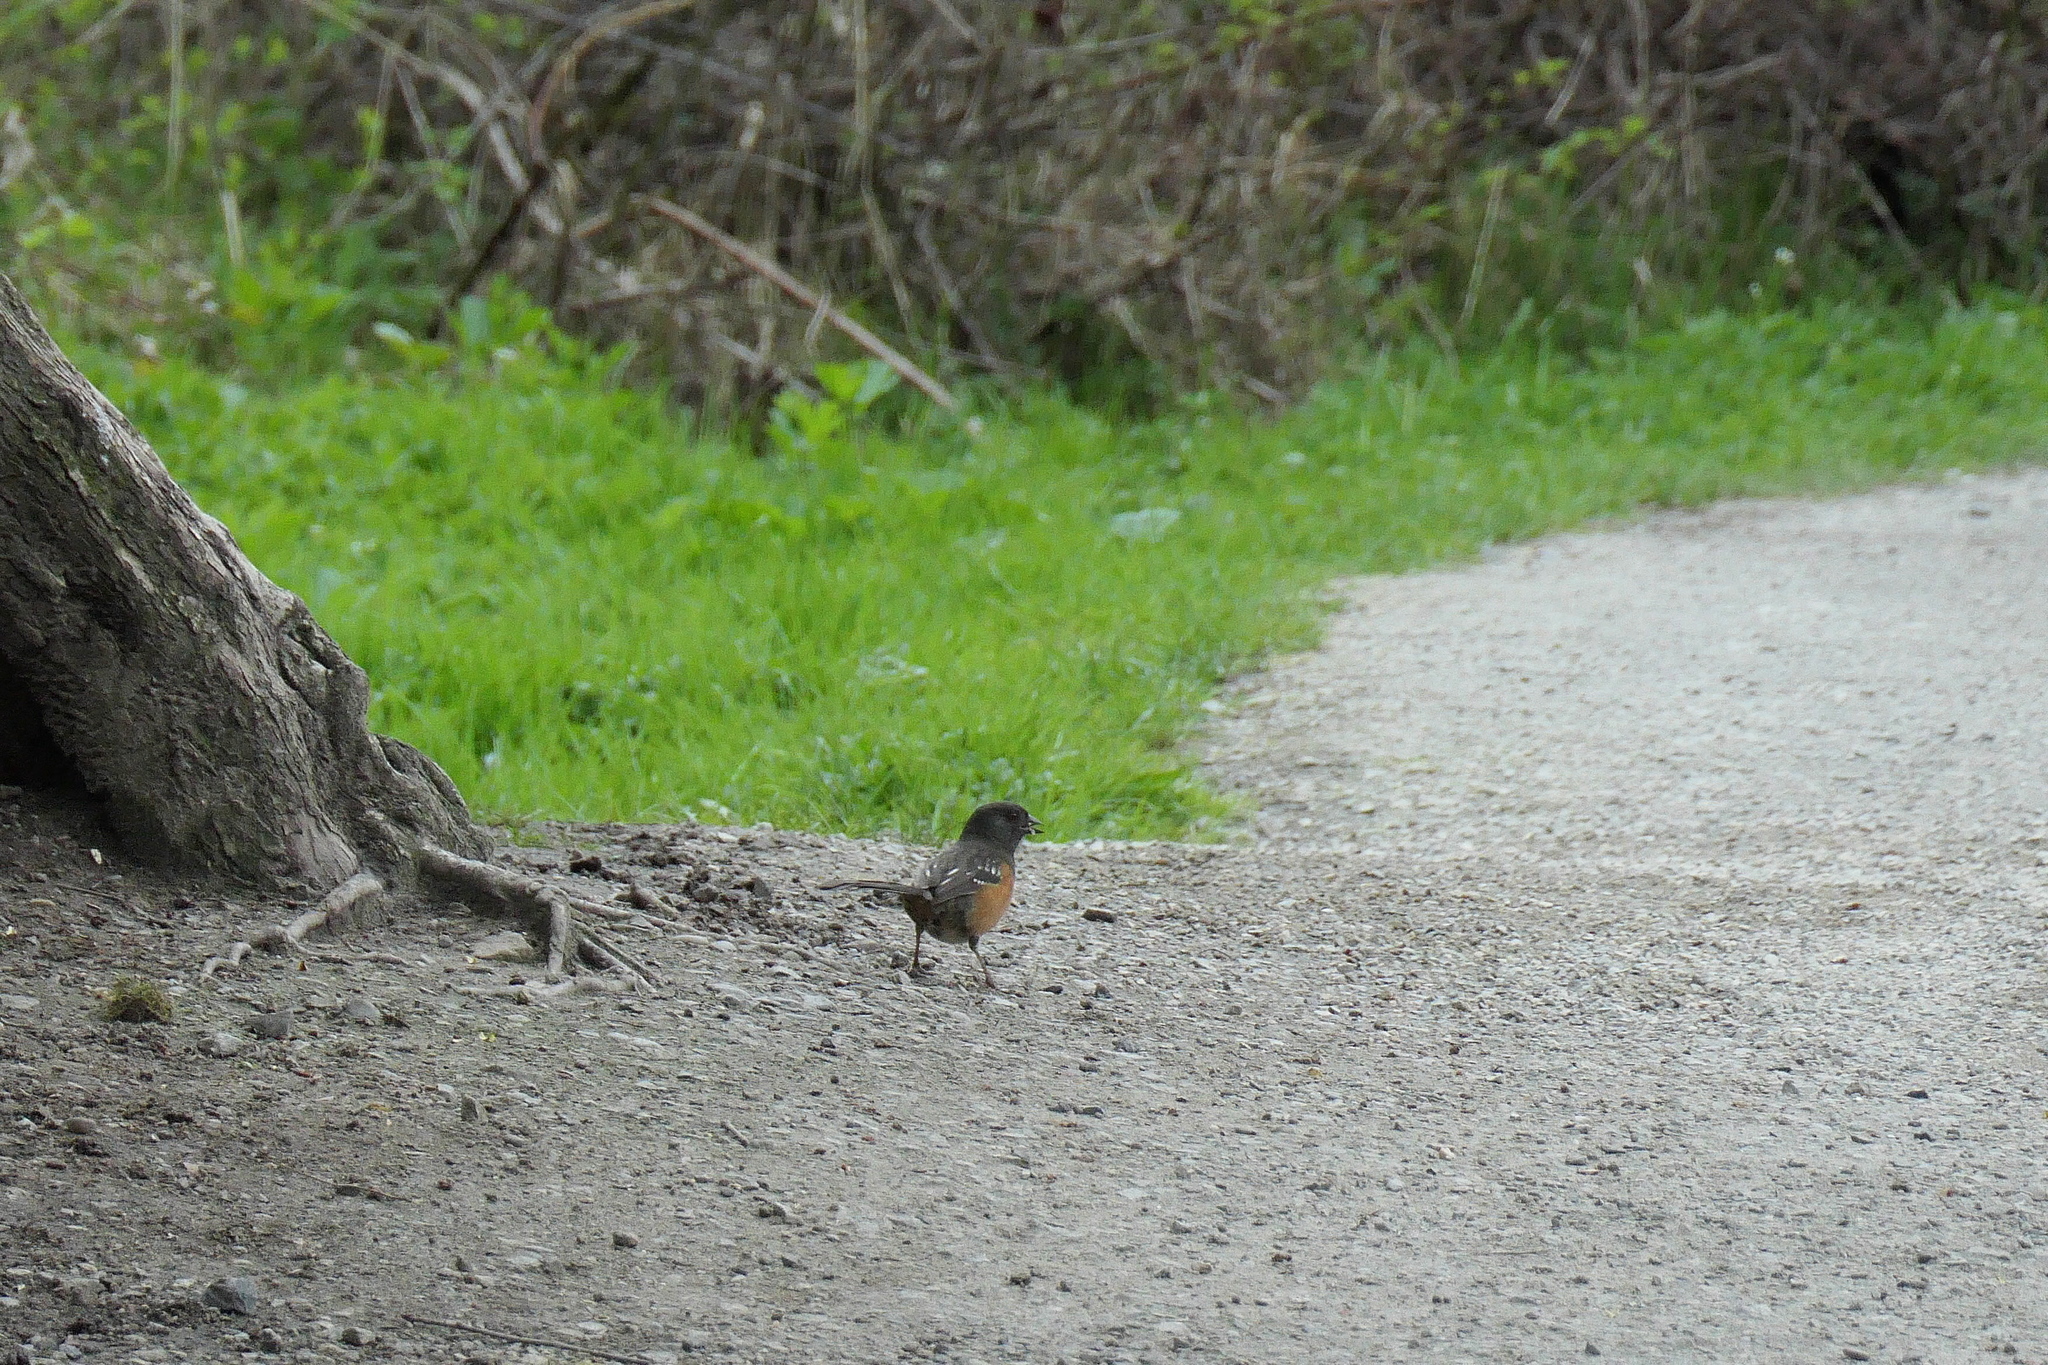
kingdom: Animalia
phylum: Chordata
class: Aves
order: Passeriformes
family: Passerellidae
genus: Pipilo
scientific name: Pipilo maculatus
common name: Spotted towhee
